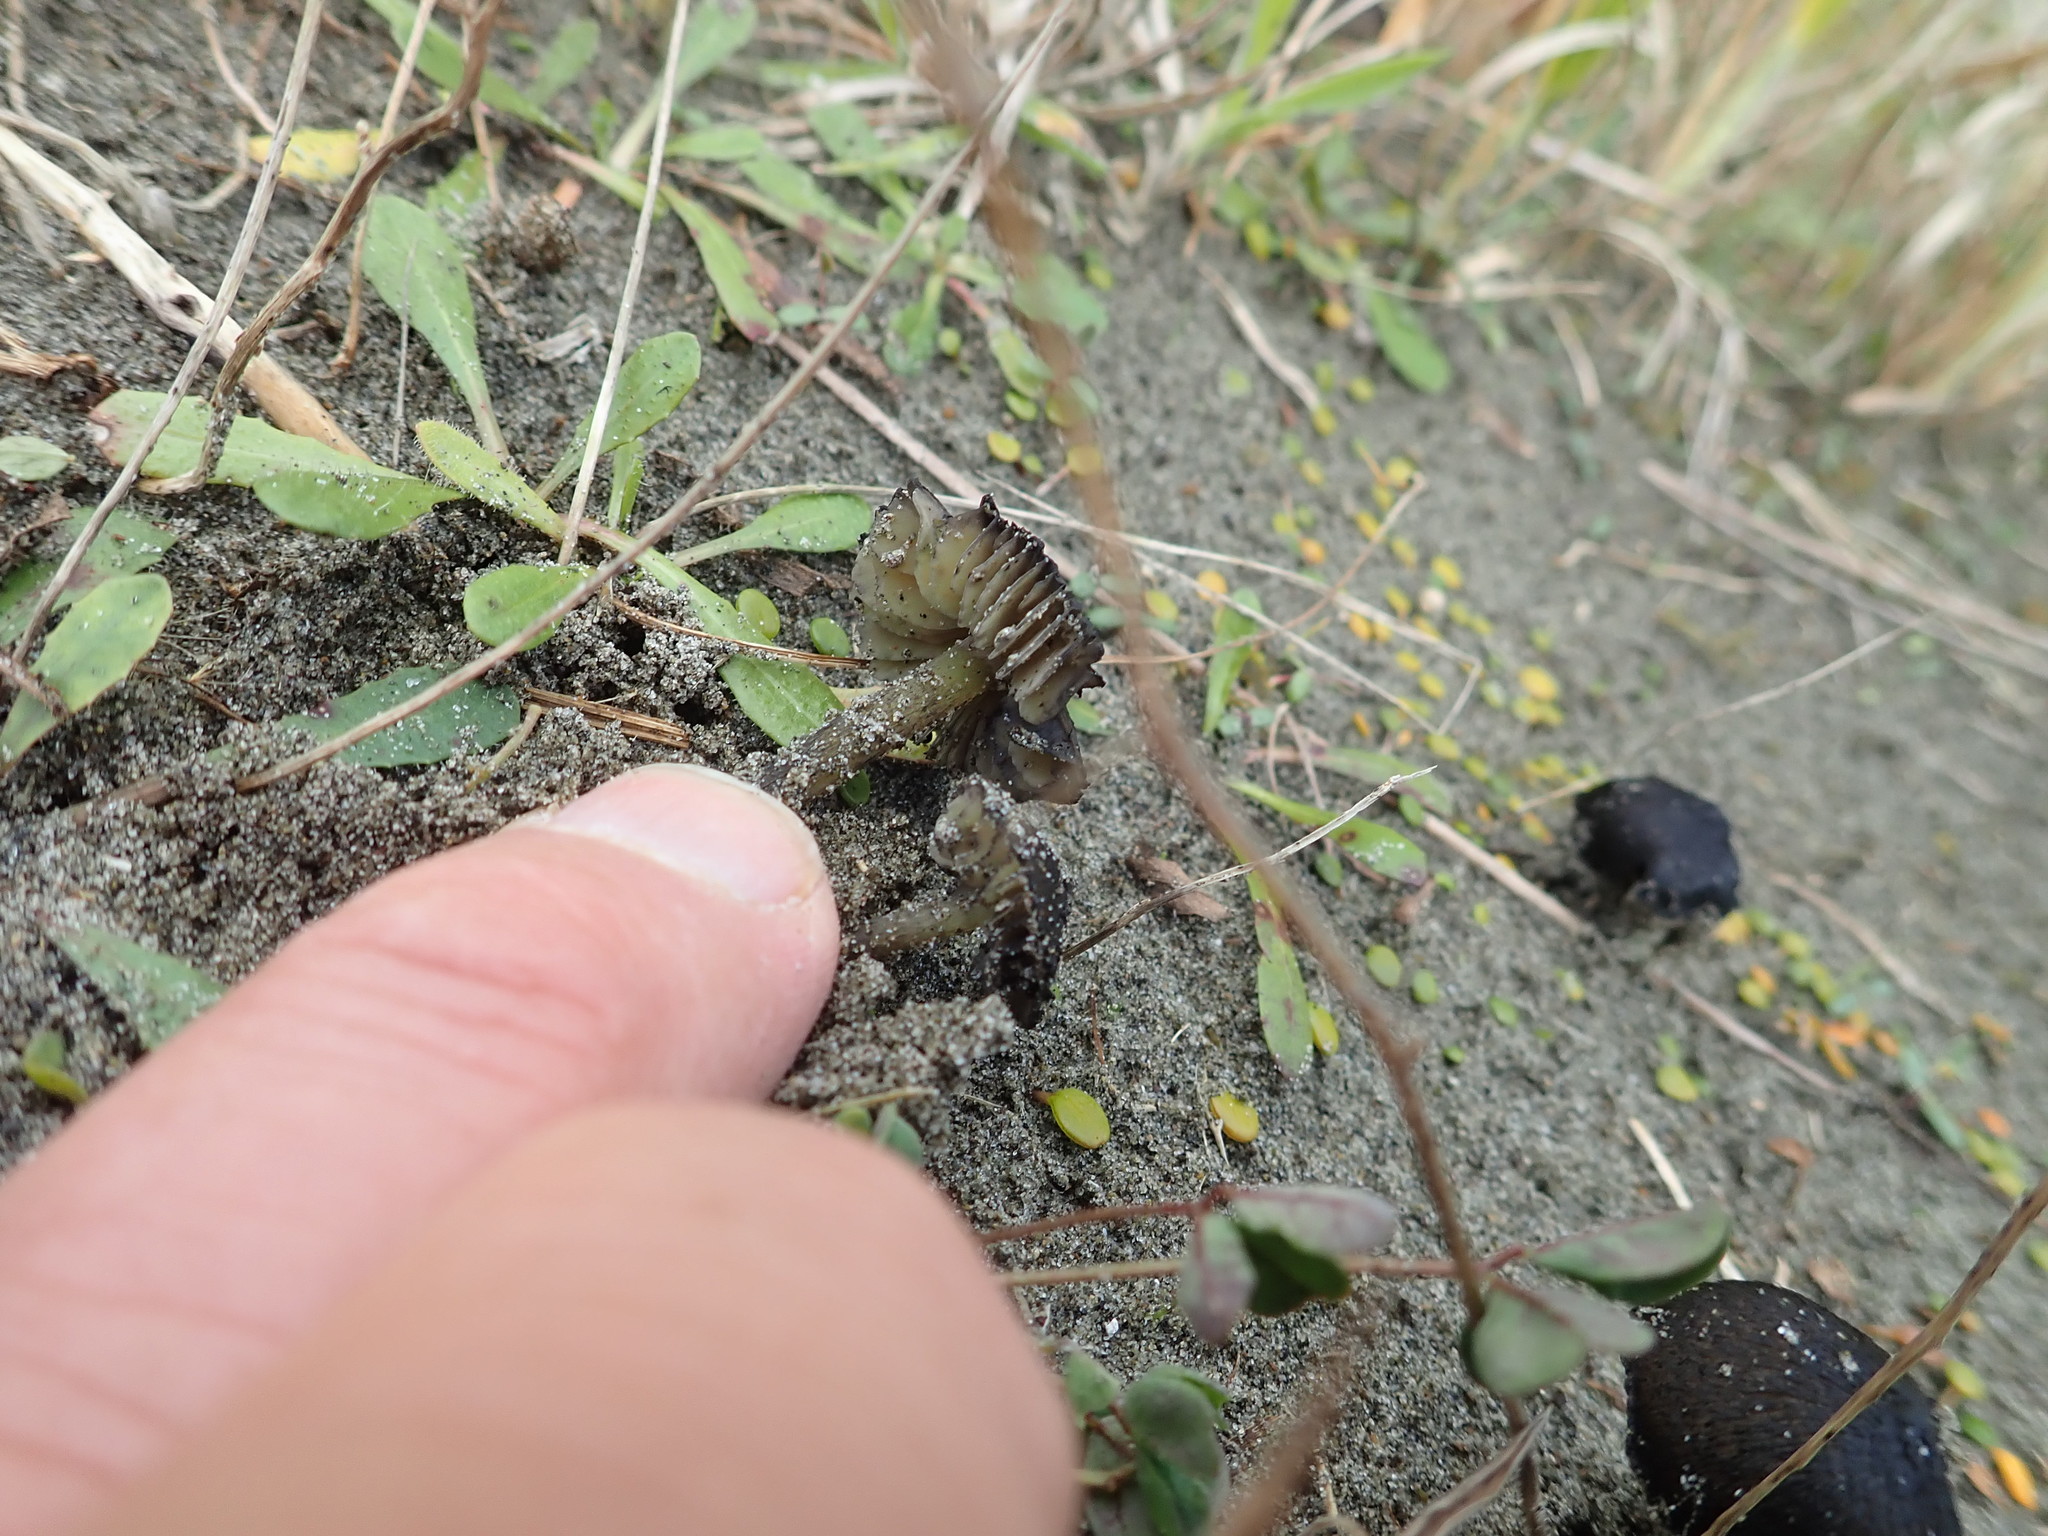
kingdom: Fungi
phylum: Basidiomycota
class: Agaricomycetes
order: Agaricales
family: Hygrophoraceae
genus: Hygrocybe
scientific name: Hygrocybe conica
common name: Blackening wax-cap
